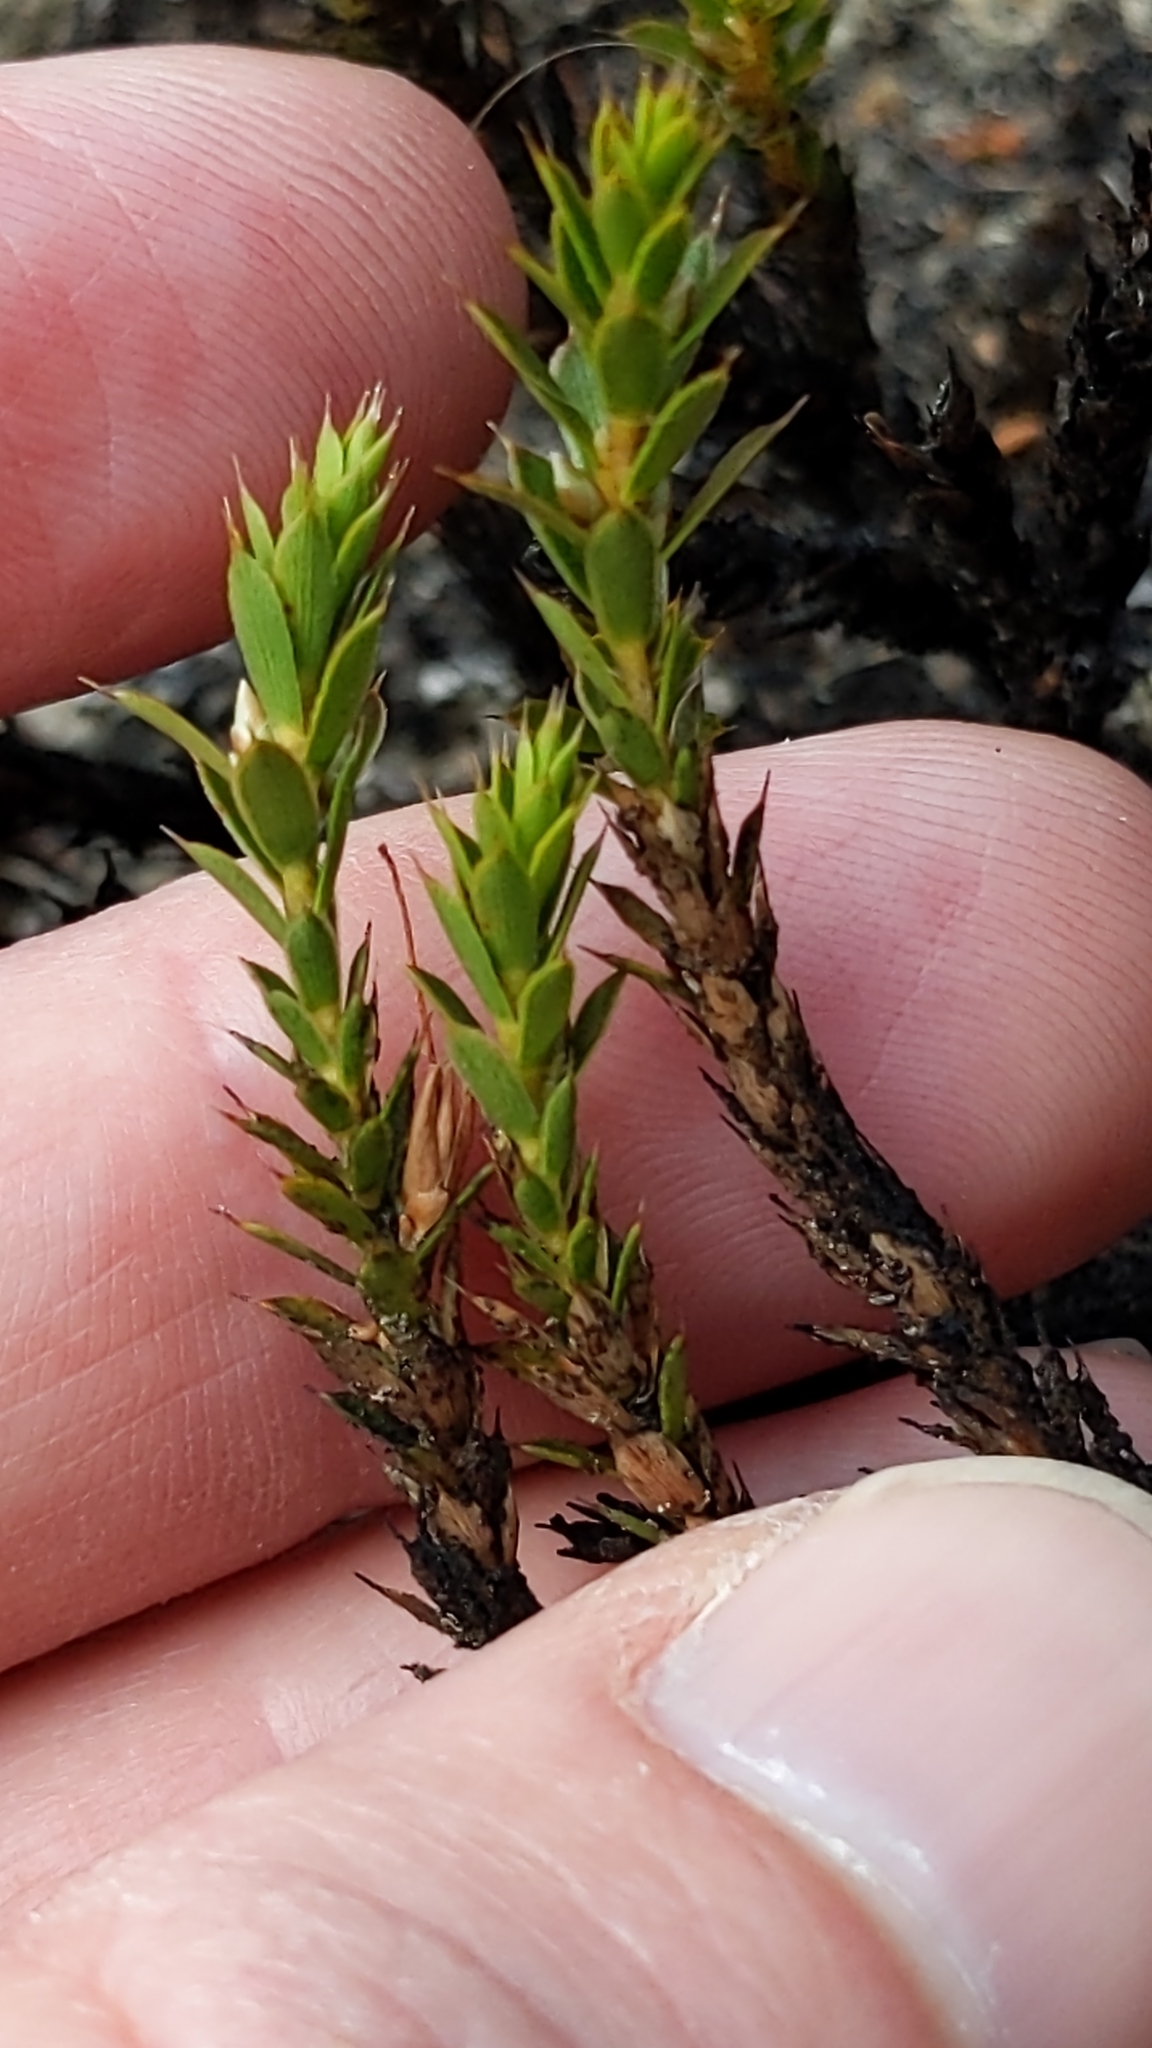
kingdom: Plantae
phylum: Tracheophyta
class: Magnoliopsida
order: Ericales
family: Ericaceae
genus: Styphelia
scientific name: Styphelia nesophila
